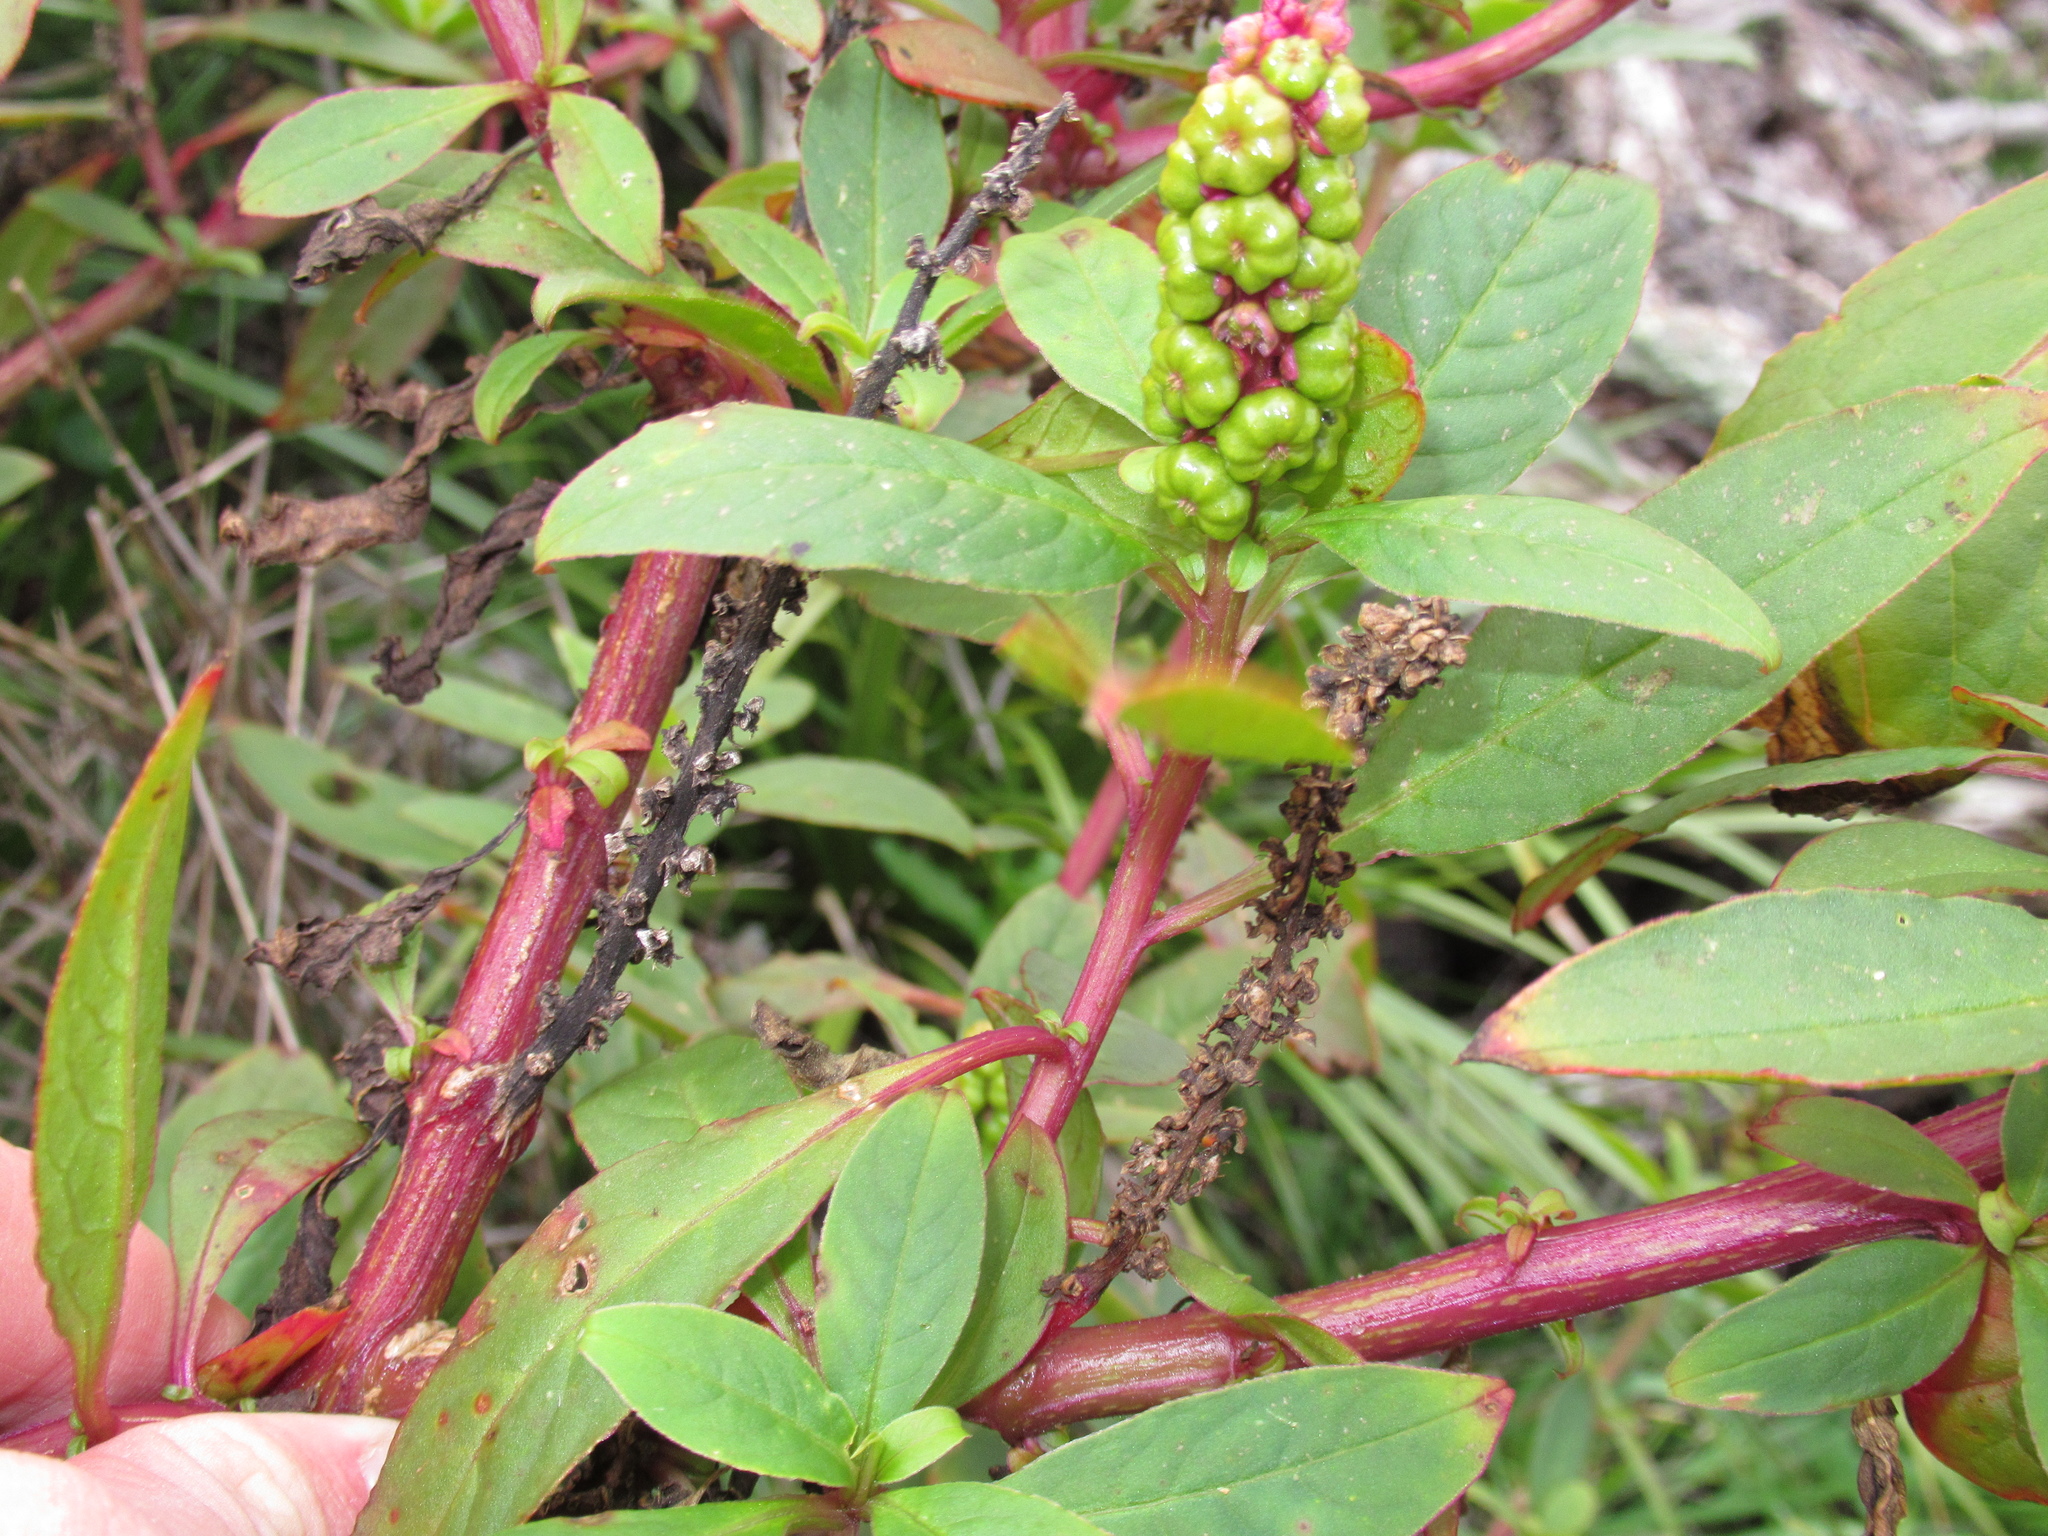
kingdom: Plantae
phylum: Tracheophyta
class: Magnoliopsida
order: Caryophyllales
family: Phytolaccaceae
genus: Phytolacca
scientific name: Phytolacca icosandra
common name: Button pokeweed
